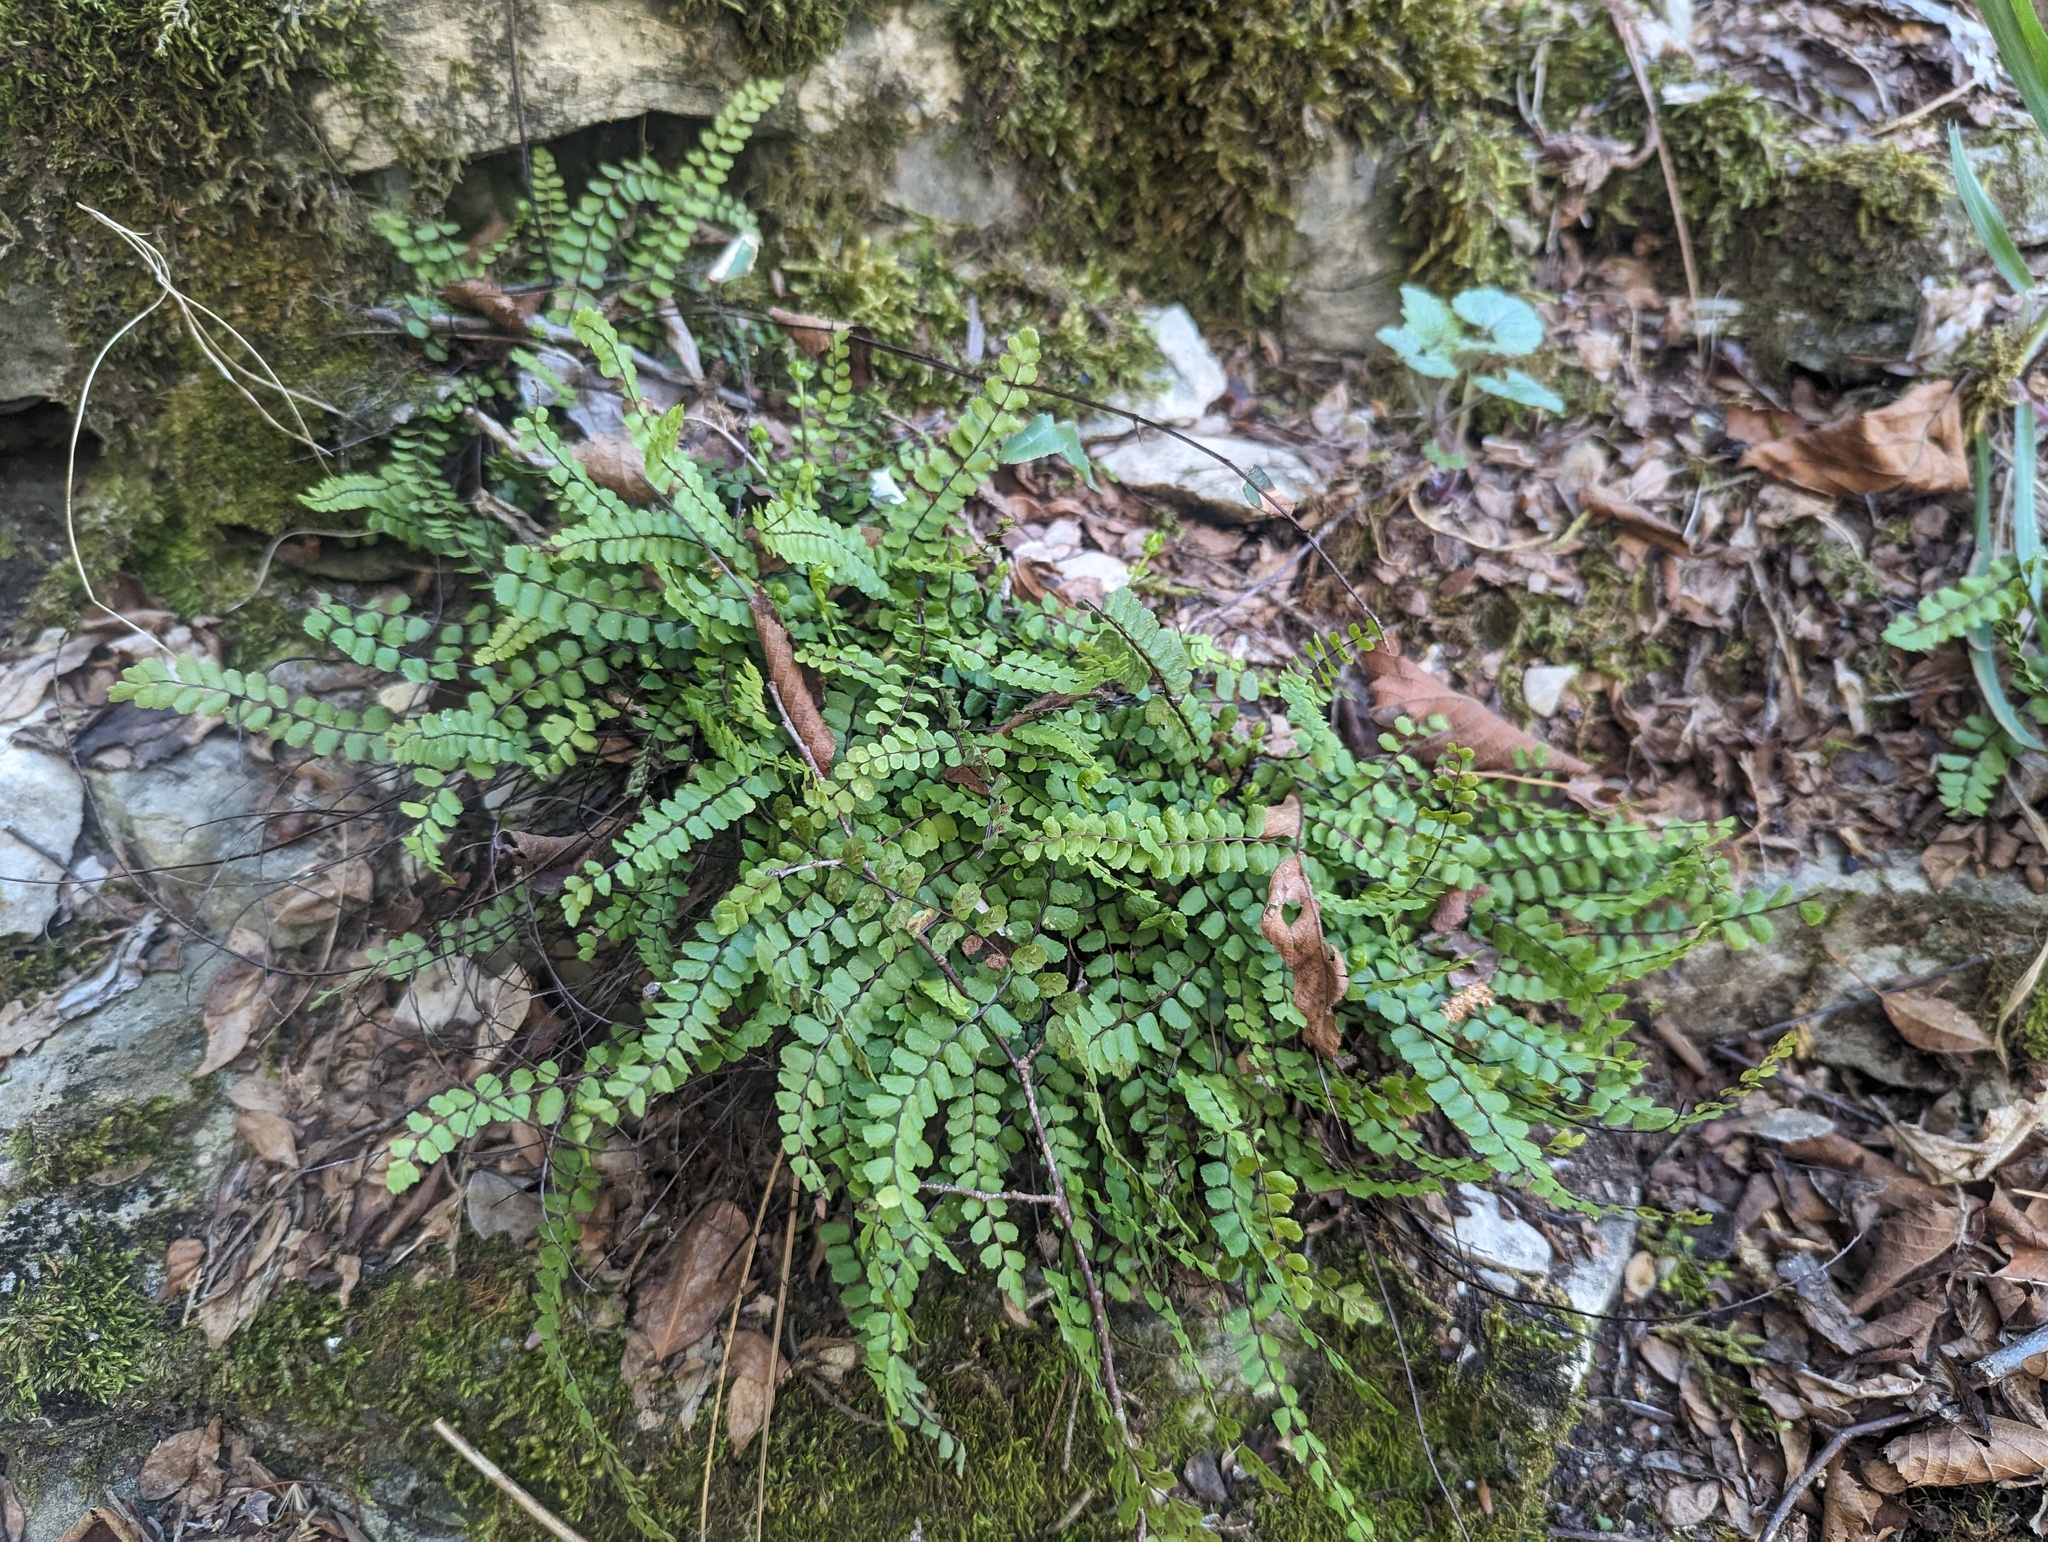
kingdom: Plantae
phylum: Tracheophyta
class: Polypodiopsida
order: Polypodiales
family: Aspleniaceae
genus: Asplenium
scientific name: Asplenium quadrivalens
